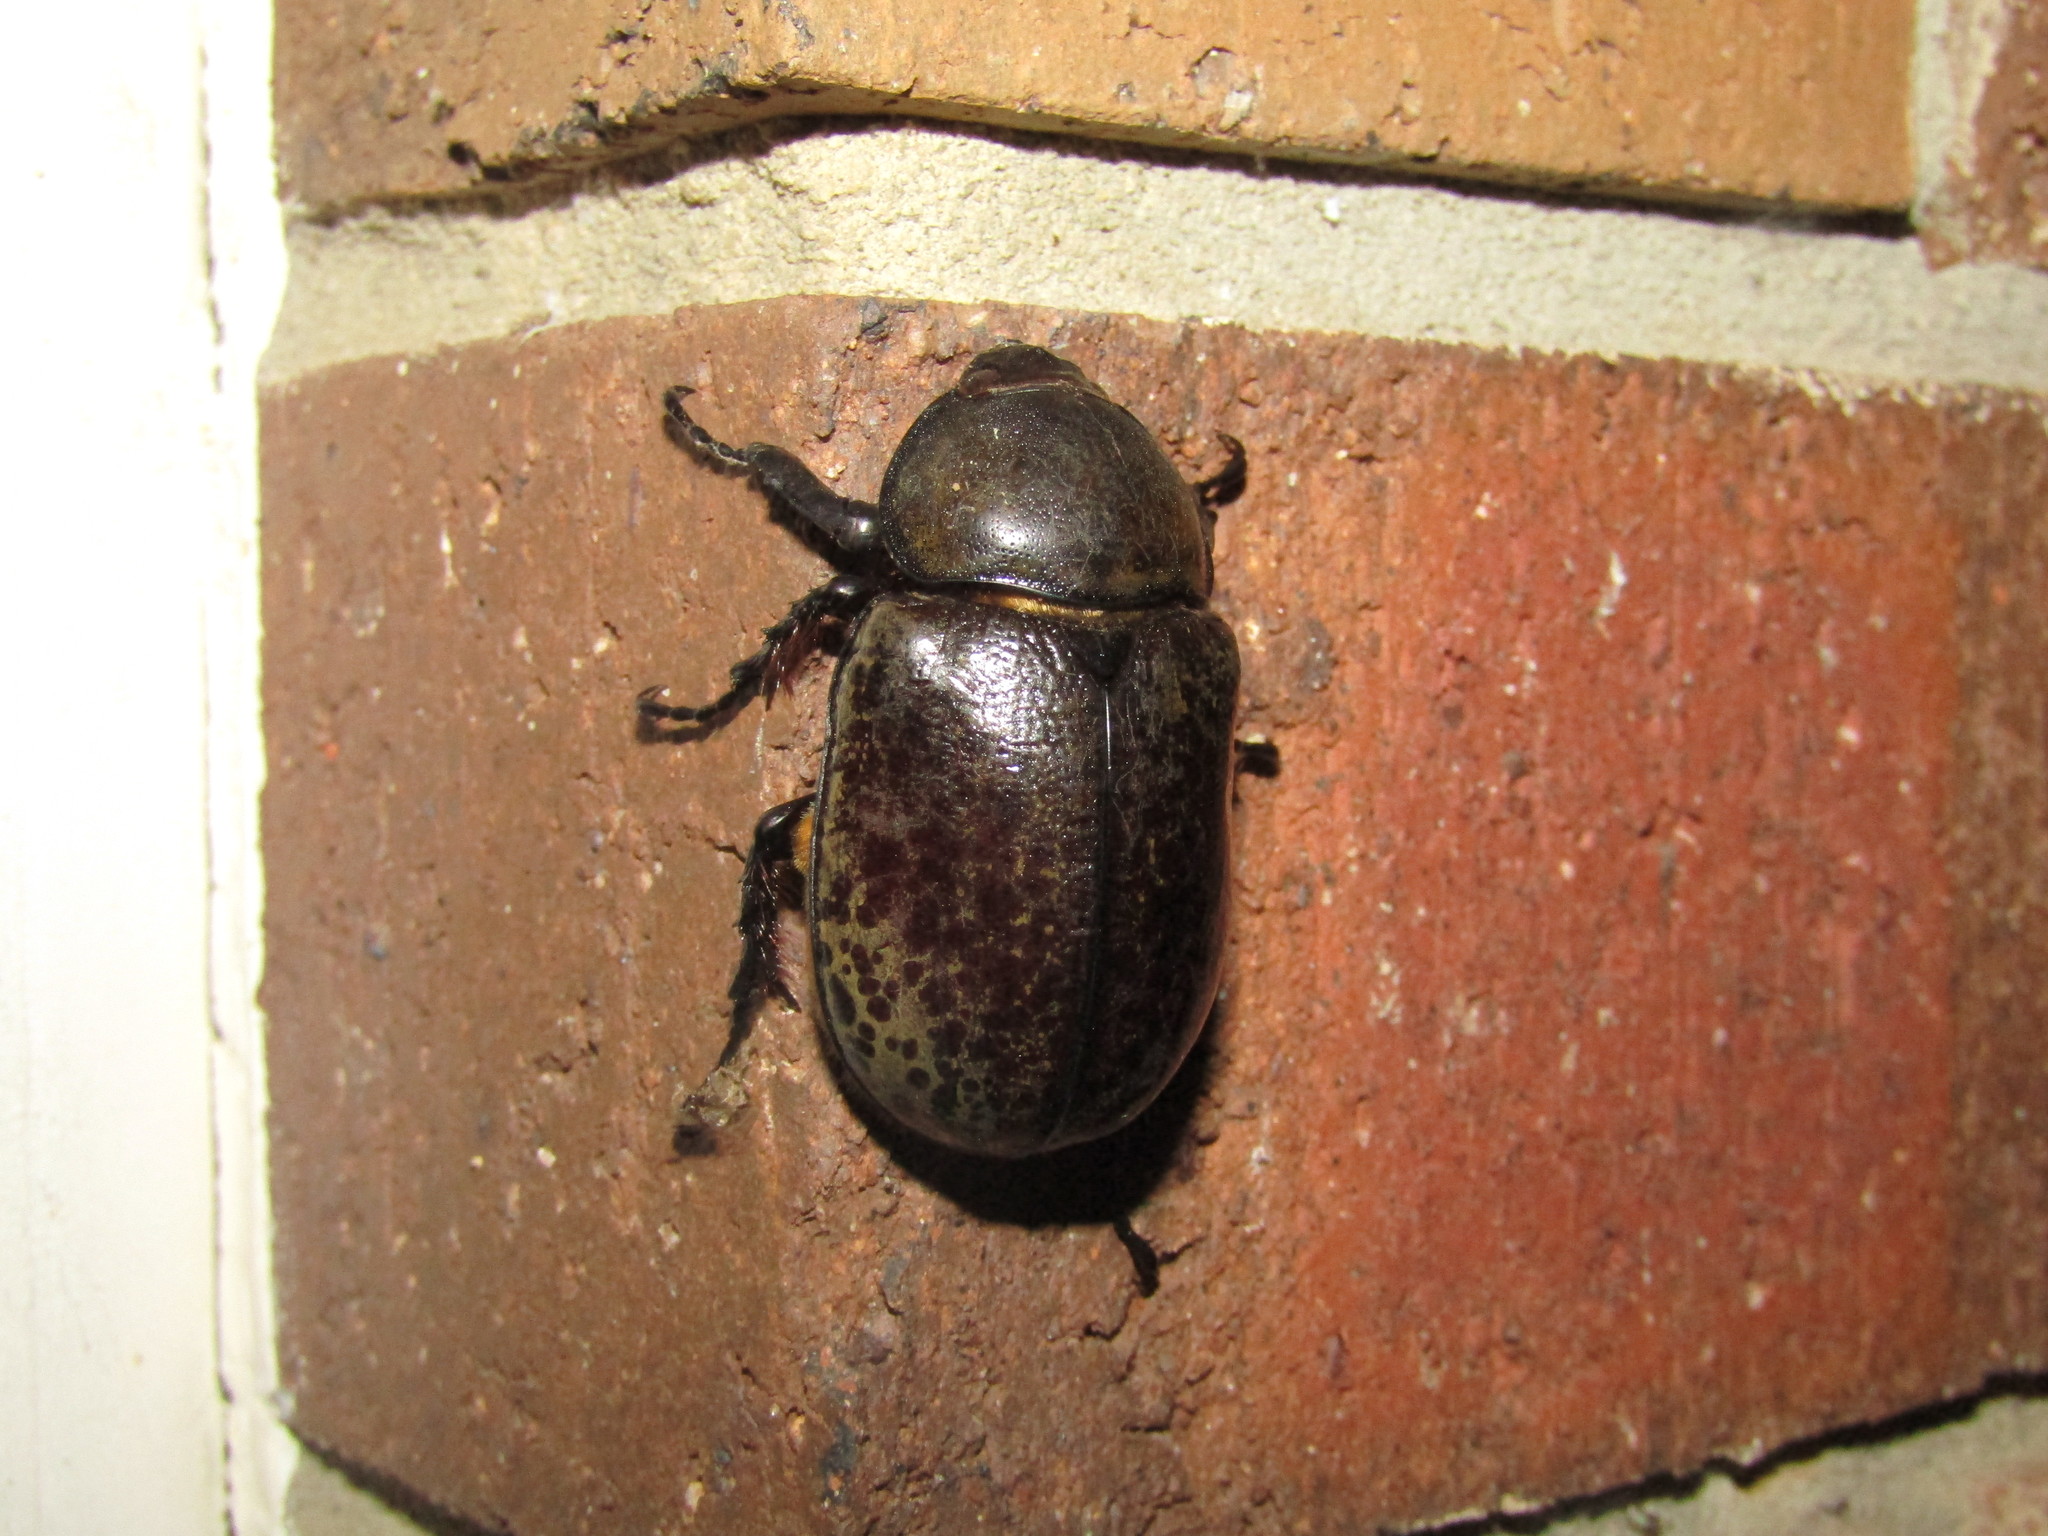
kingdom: Animalia
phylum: Arthropoda
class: Insecta
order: Coleoptera
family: Scarabaeidae
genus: Dynastes
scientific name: Dynastes tityus
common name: Eastern hercules beetle
